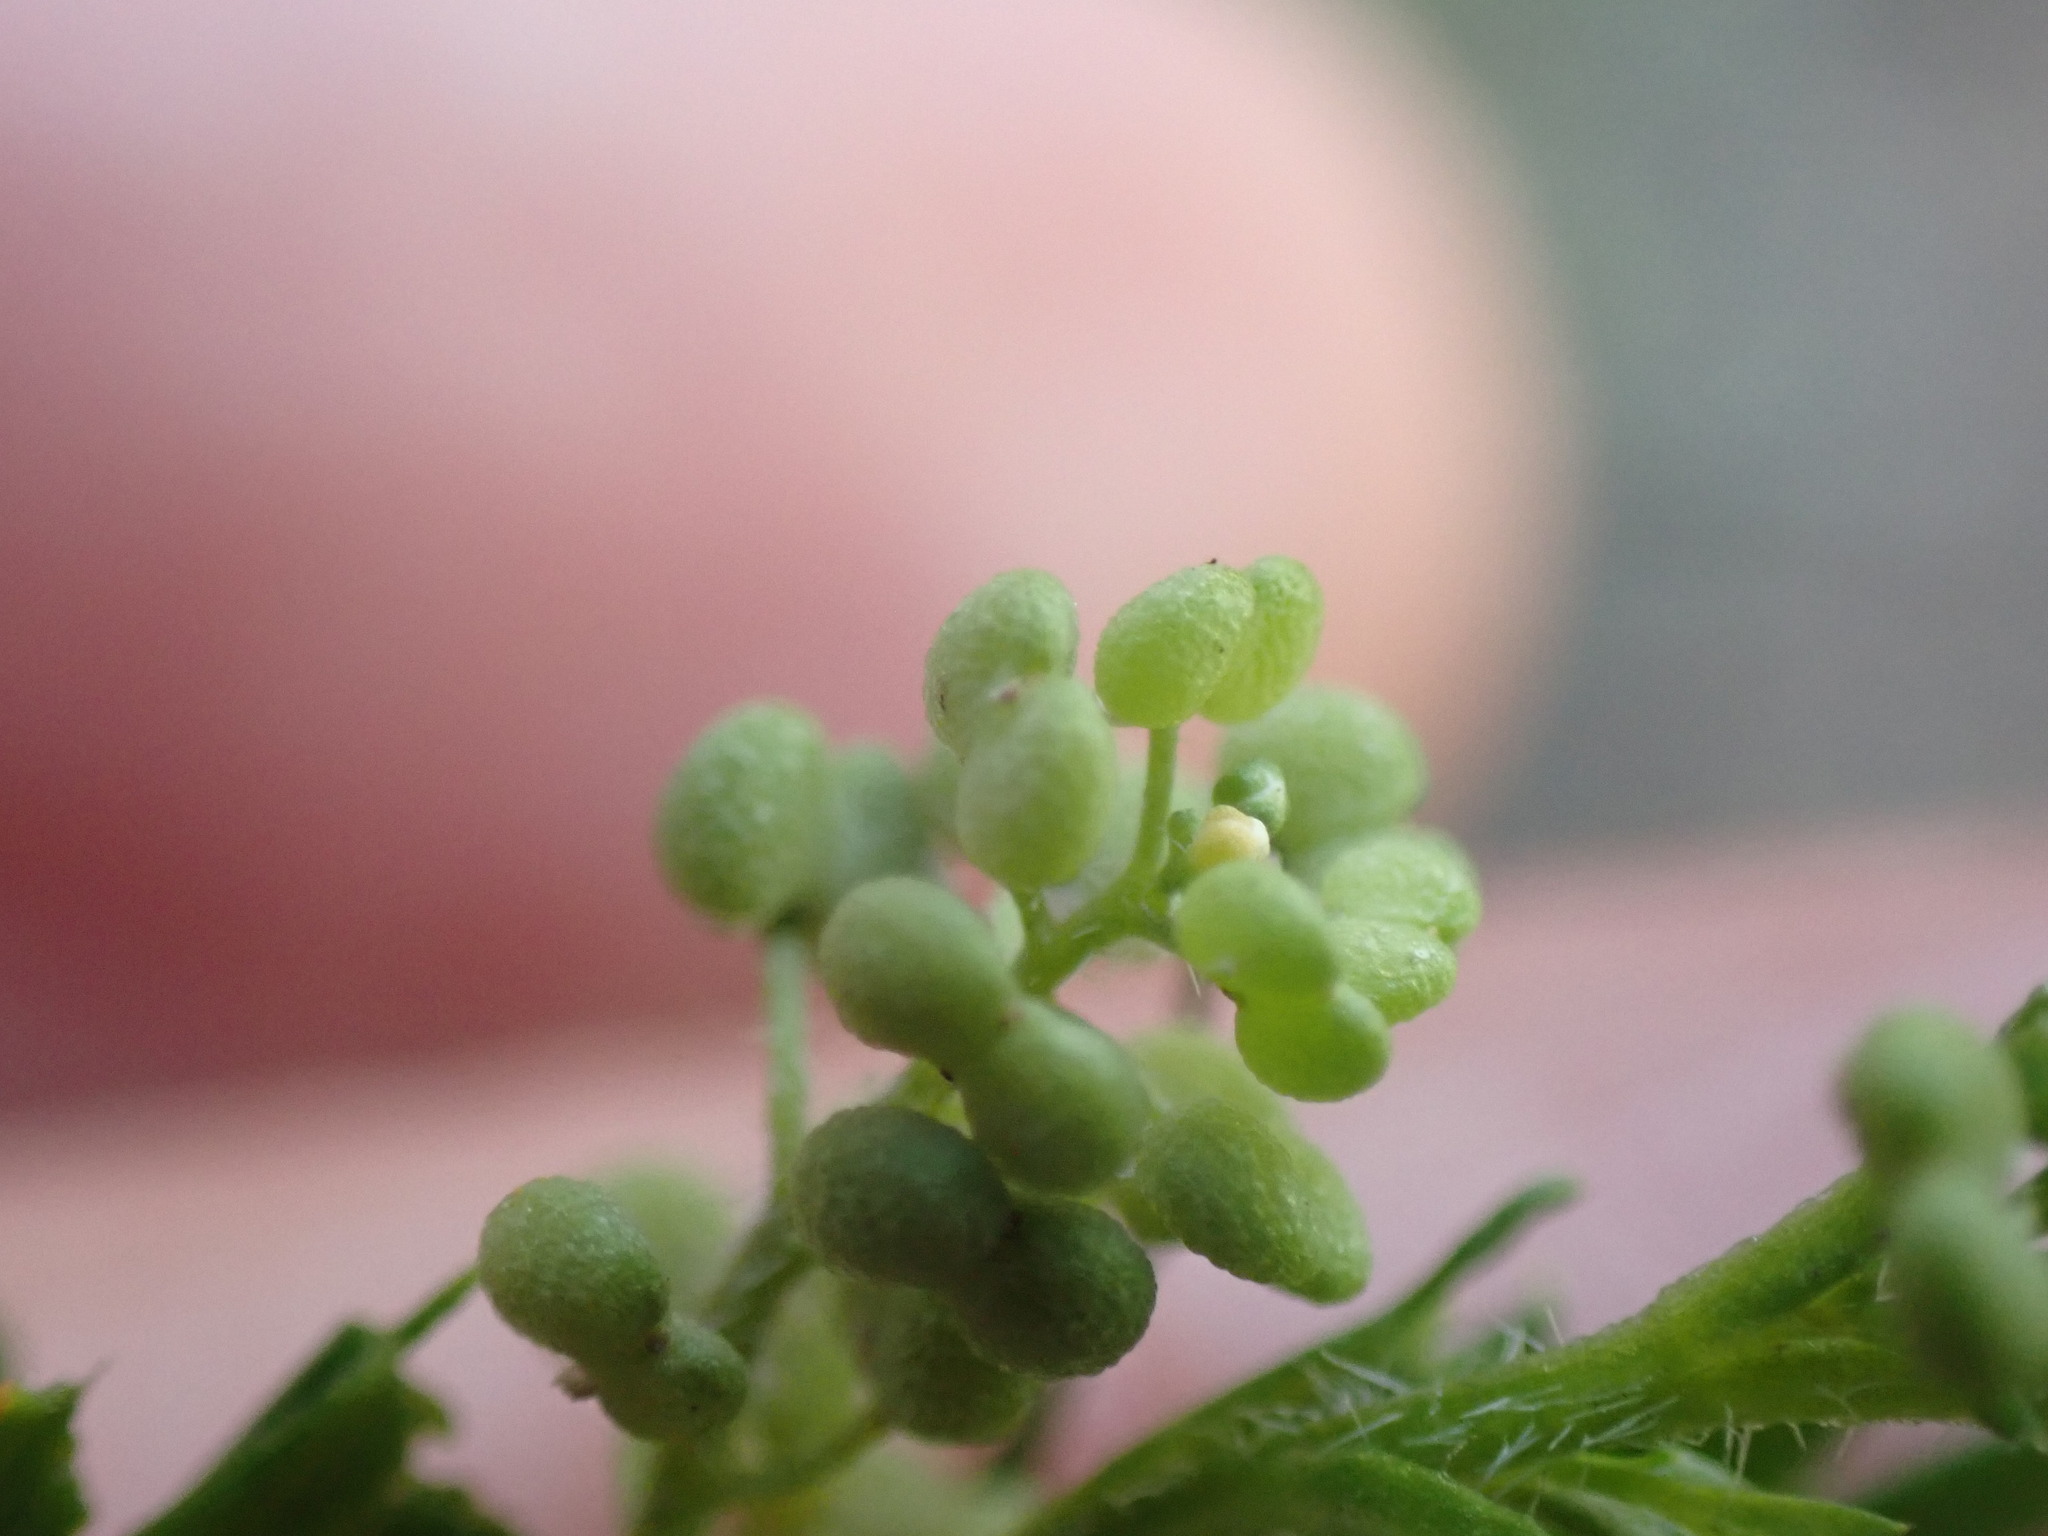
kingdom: Plantae
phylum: Tracheophyta
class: Magnoliopsida
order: Brassicales
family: Brassicaceae
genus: Lepidium
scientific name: Lepidium didymum
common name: Lesser swinecress
